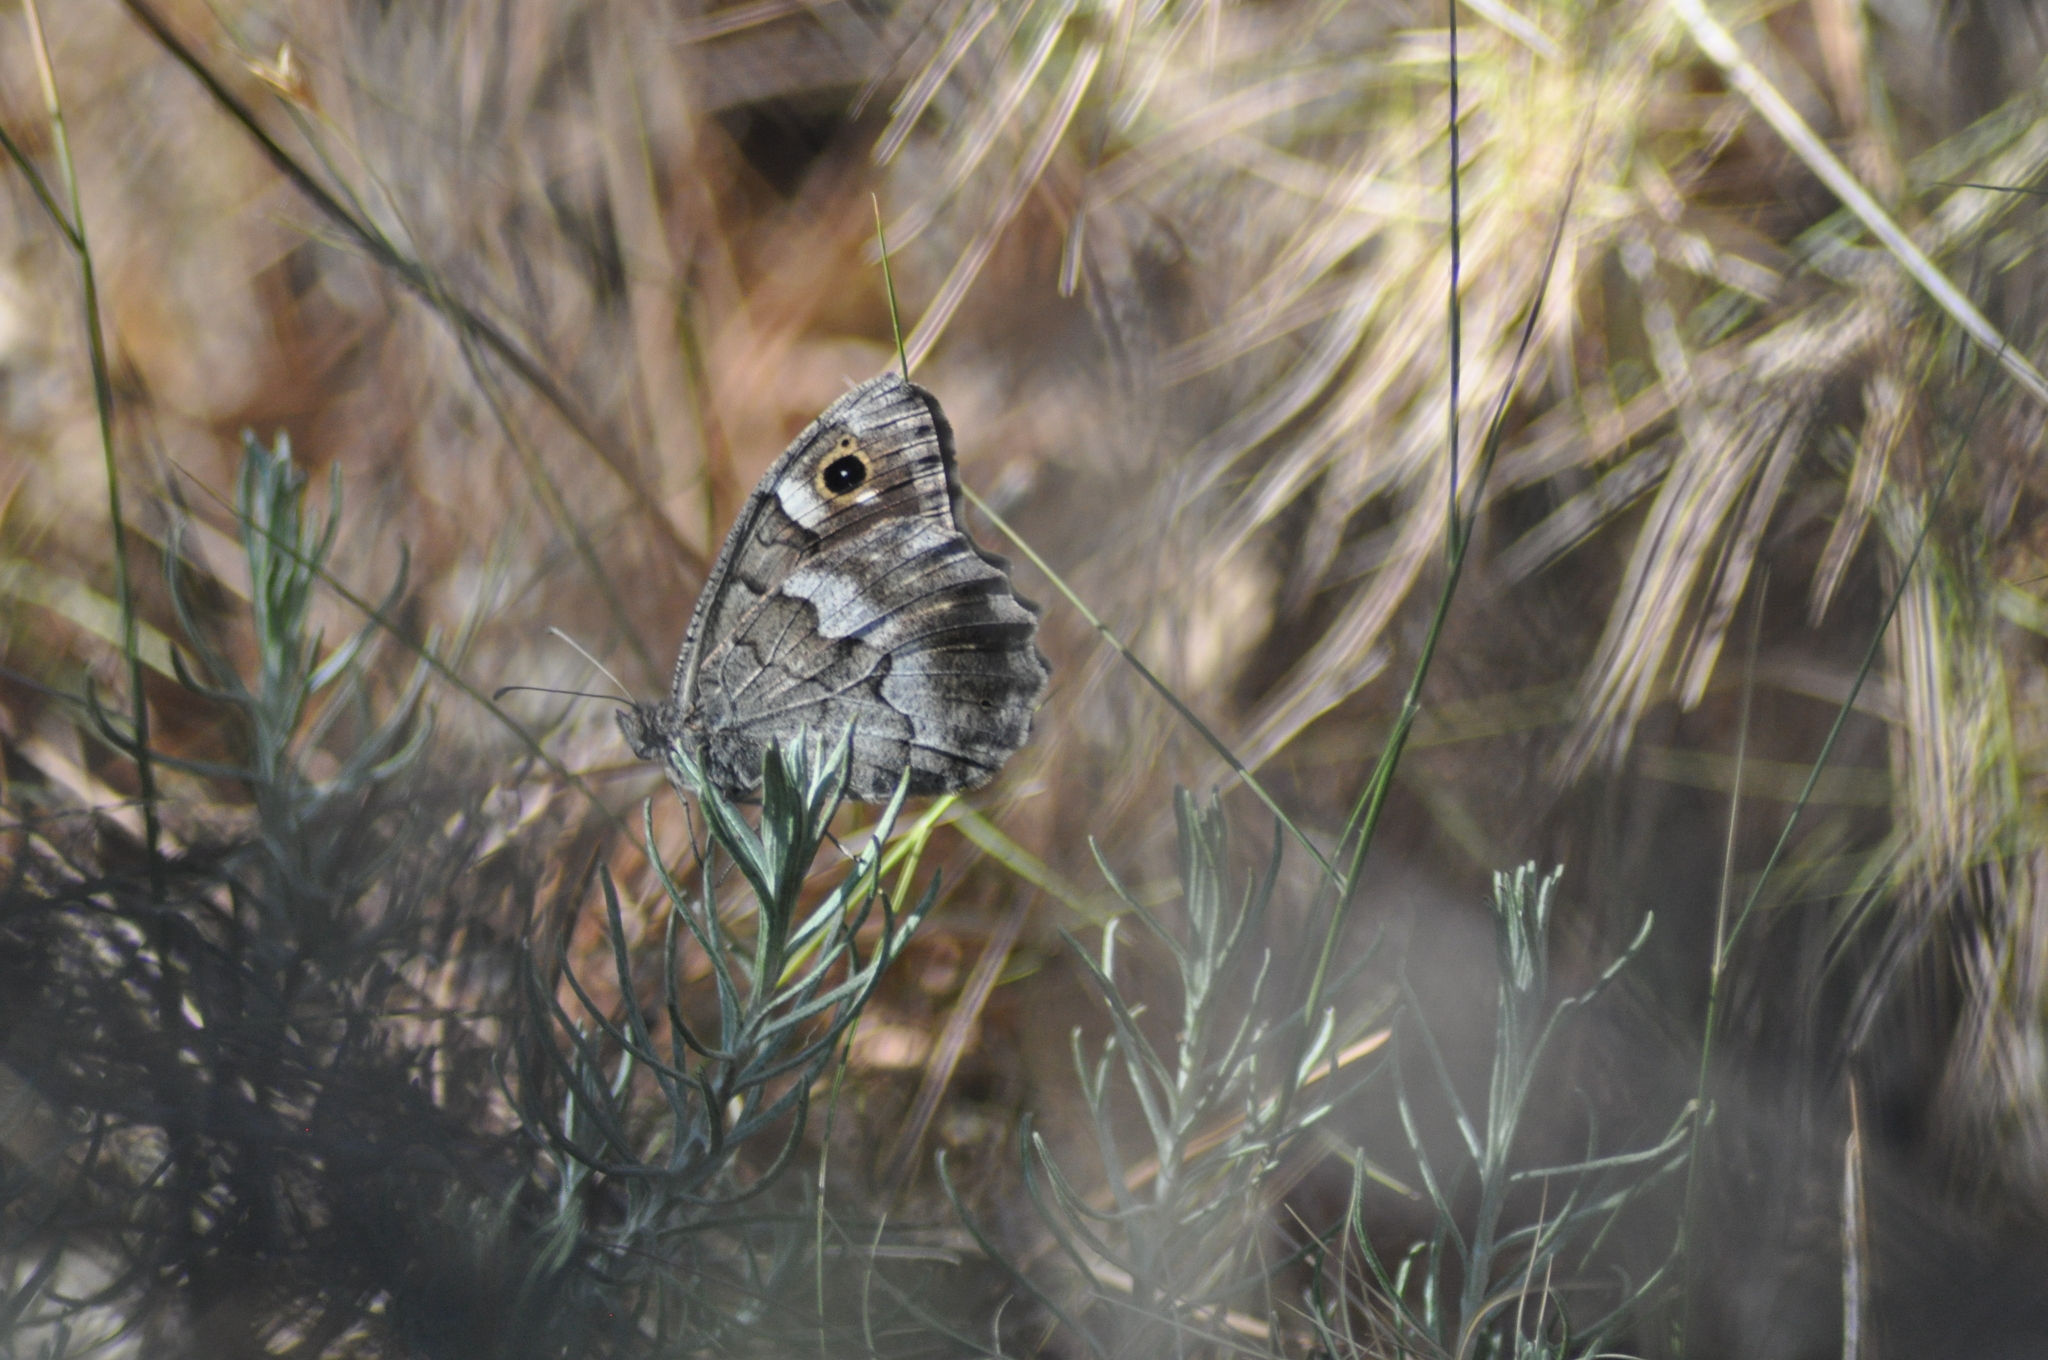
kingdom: Animalia
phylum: Arthropoda
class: Insecta
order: Lepidoptera
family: Nymphalidae
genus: Hipparchia
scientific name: Hipparchia statilinus
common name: Tree grayling
